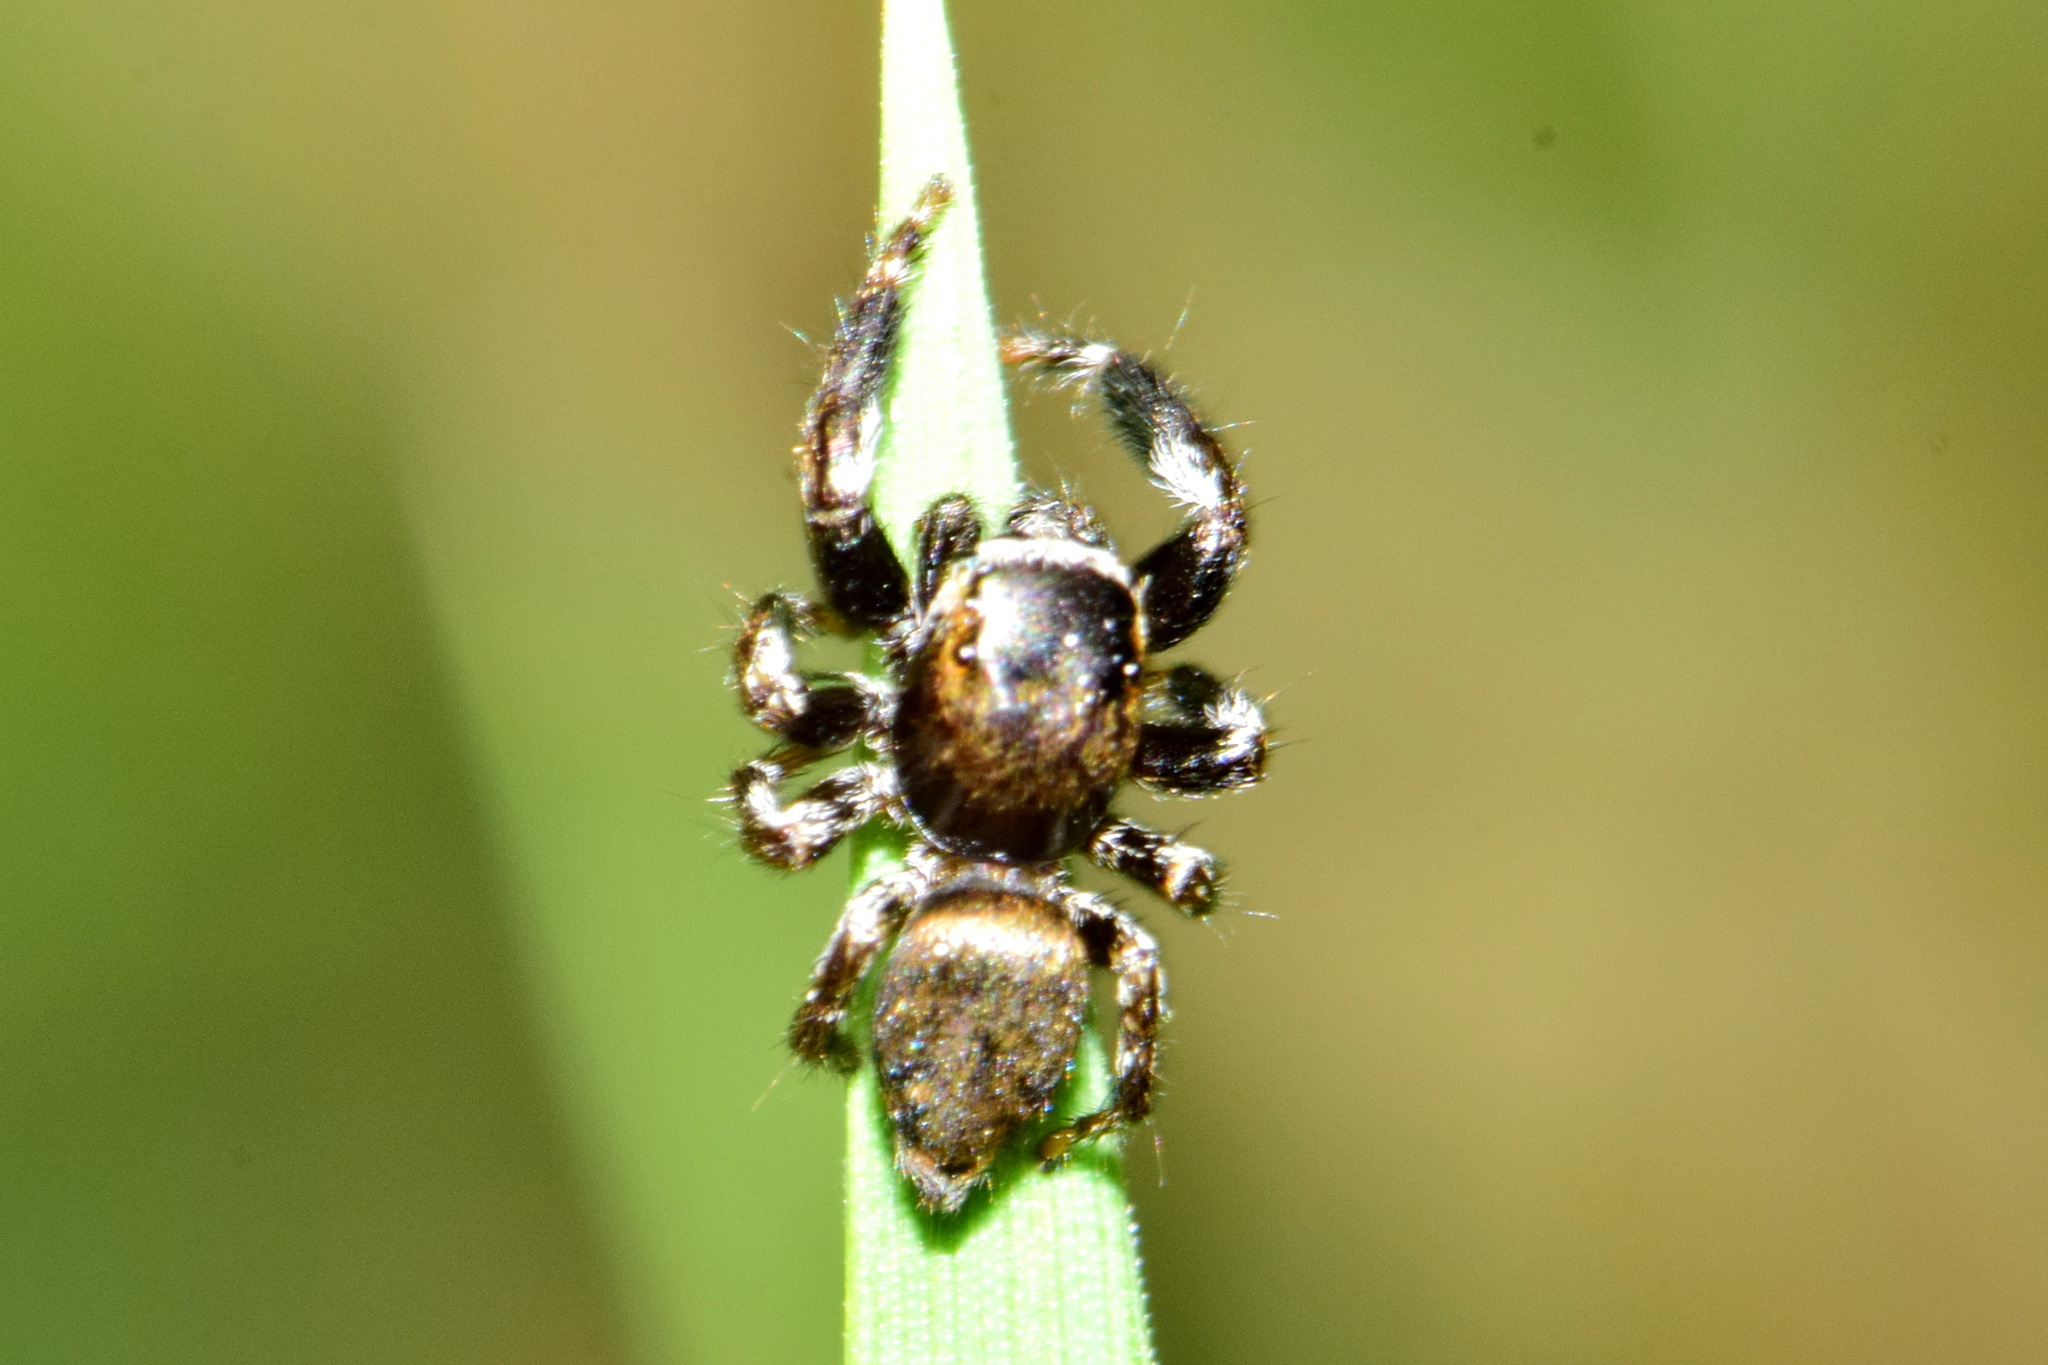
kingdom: Animalia
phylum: Arthropoda
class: Arachnida
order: Araneae
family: Salticidae
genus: Evarcha
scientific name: Evarcha arcuata
